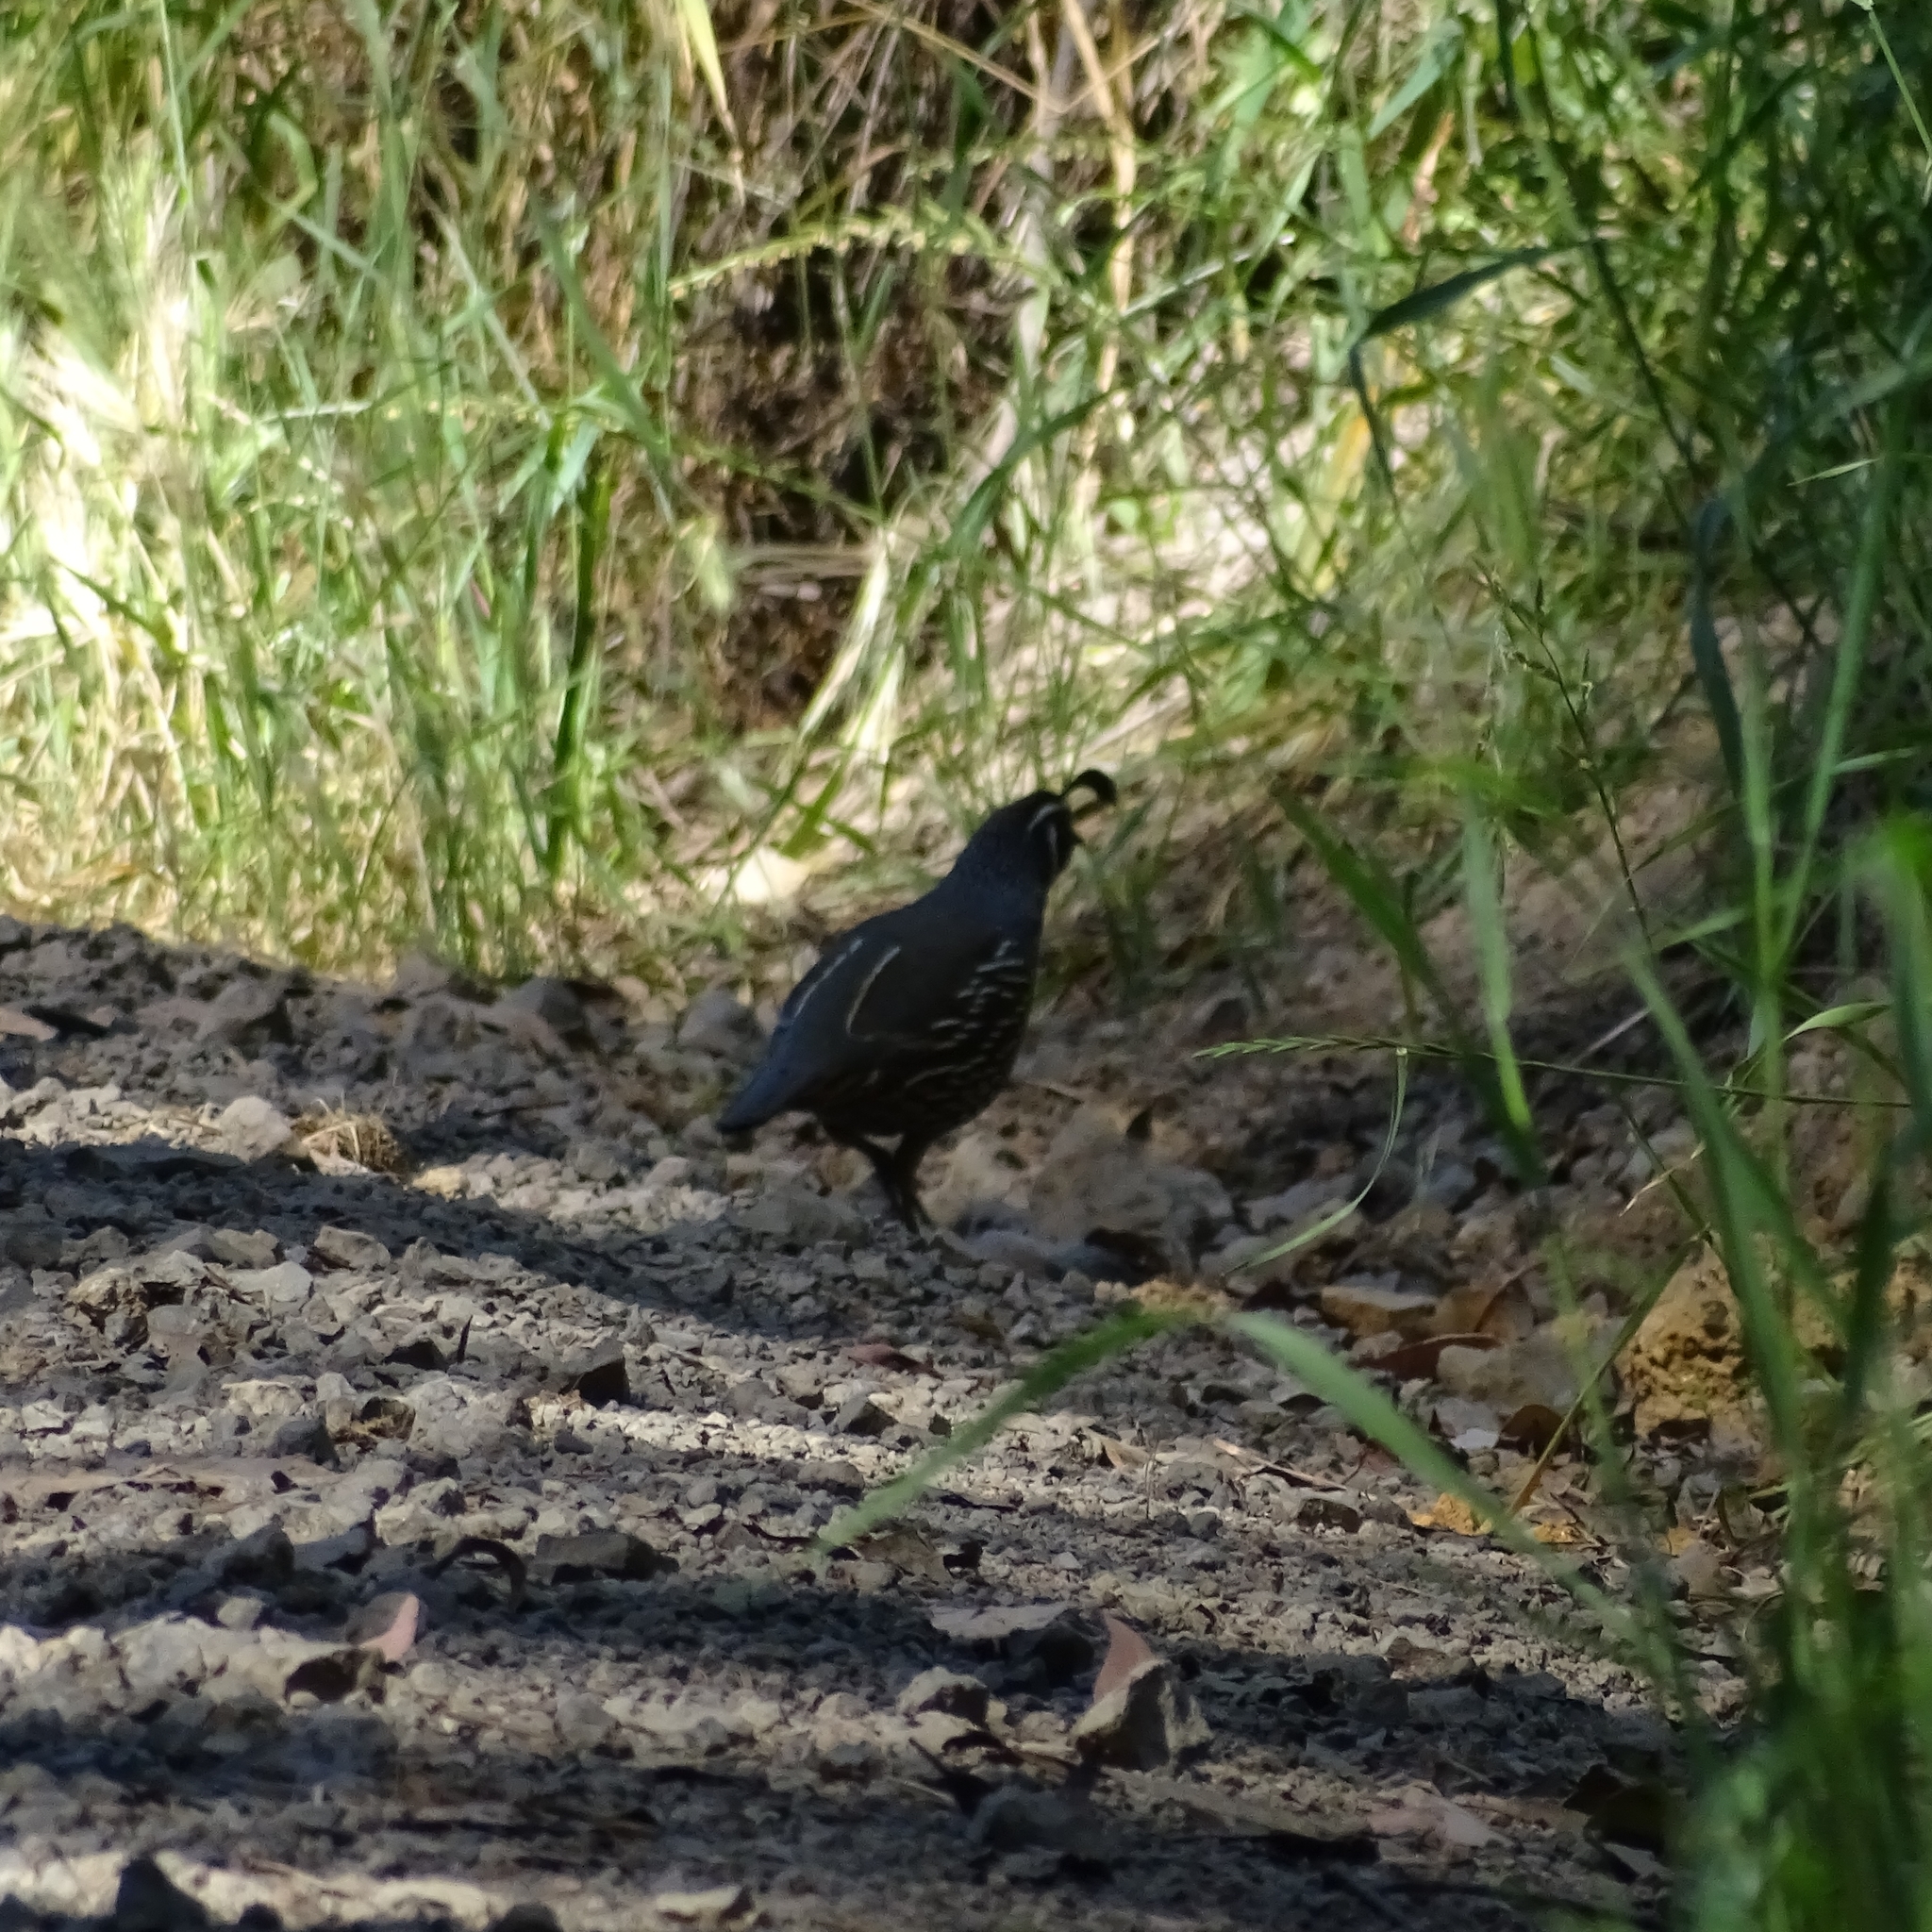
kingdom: Animalia
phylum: Chordata
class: Aves
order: Galliformes
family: Odontophoridae
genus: Callipepla
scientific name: Callipepla californica
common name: California quail
